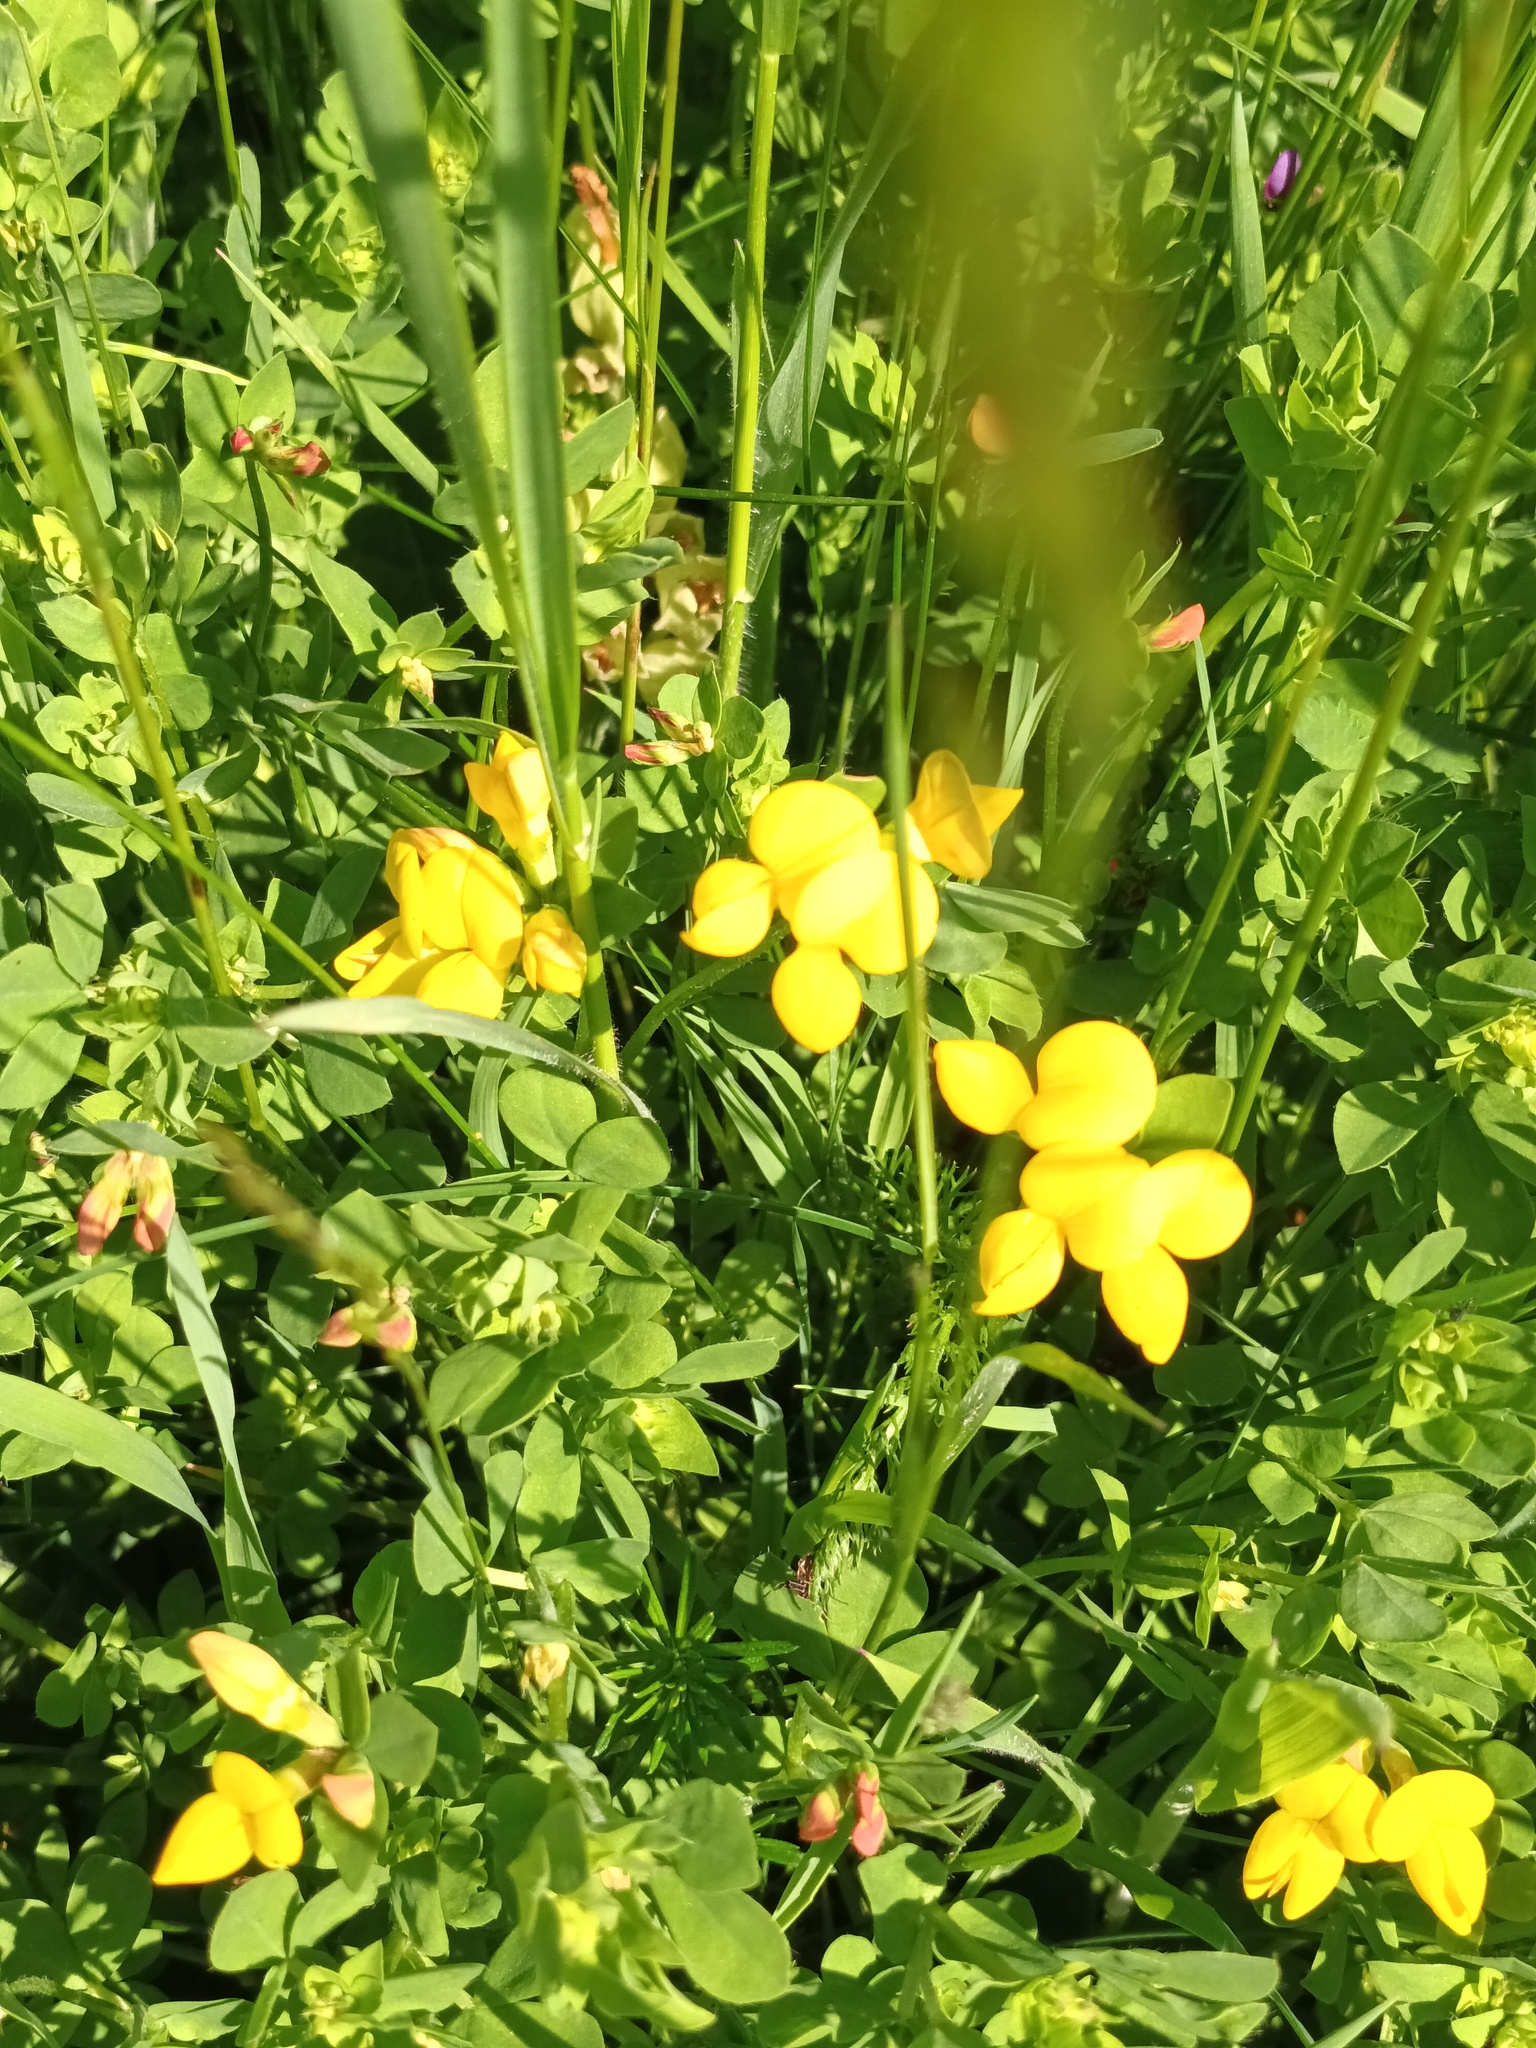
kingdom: Plantae
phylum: Tracheophyta
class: Magnoliopsida
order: Fabales
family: Fabaceae
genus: Lotus
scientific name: Lotus corniculatus
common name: Common bird's-foot-trefoil
